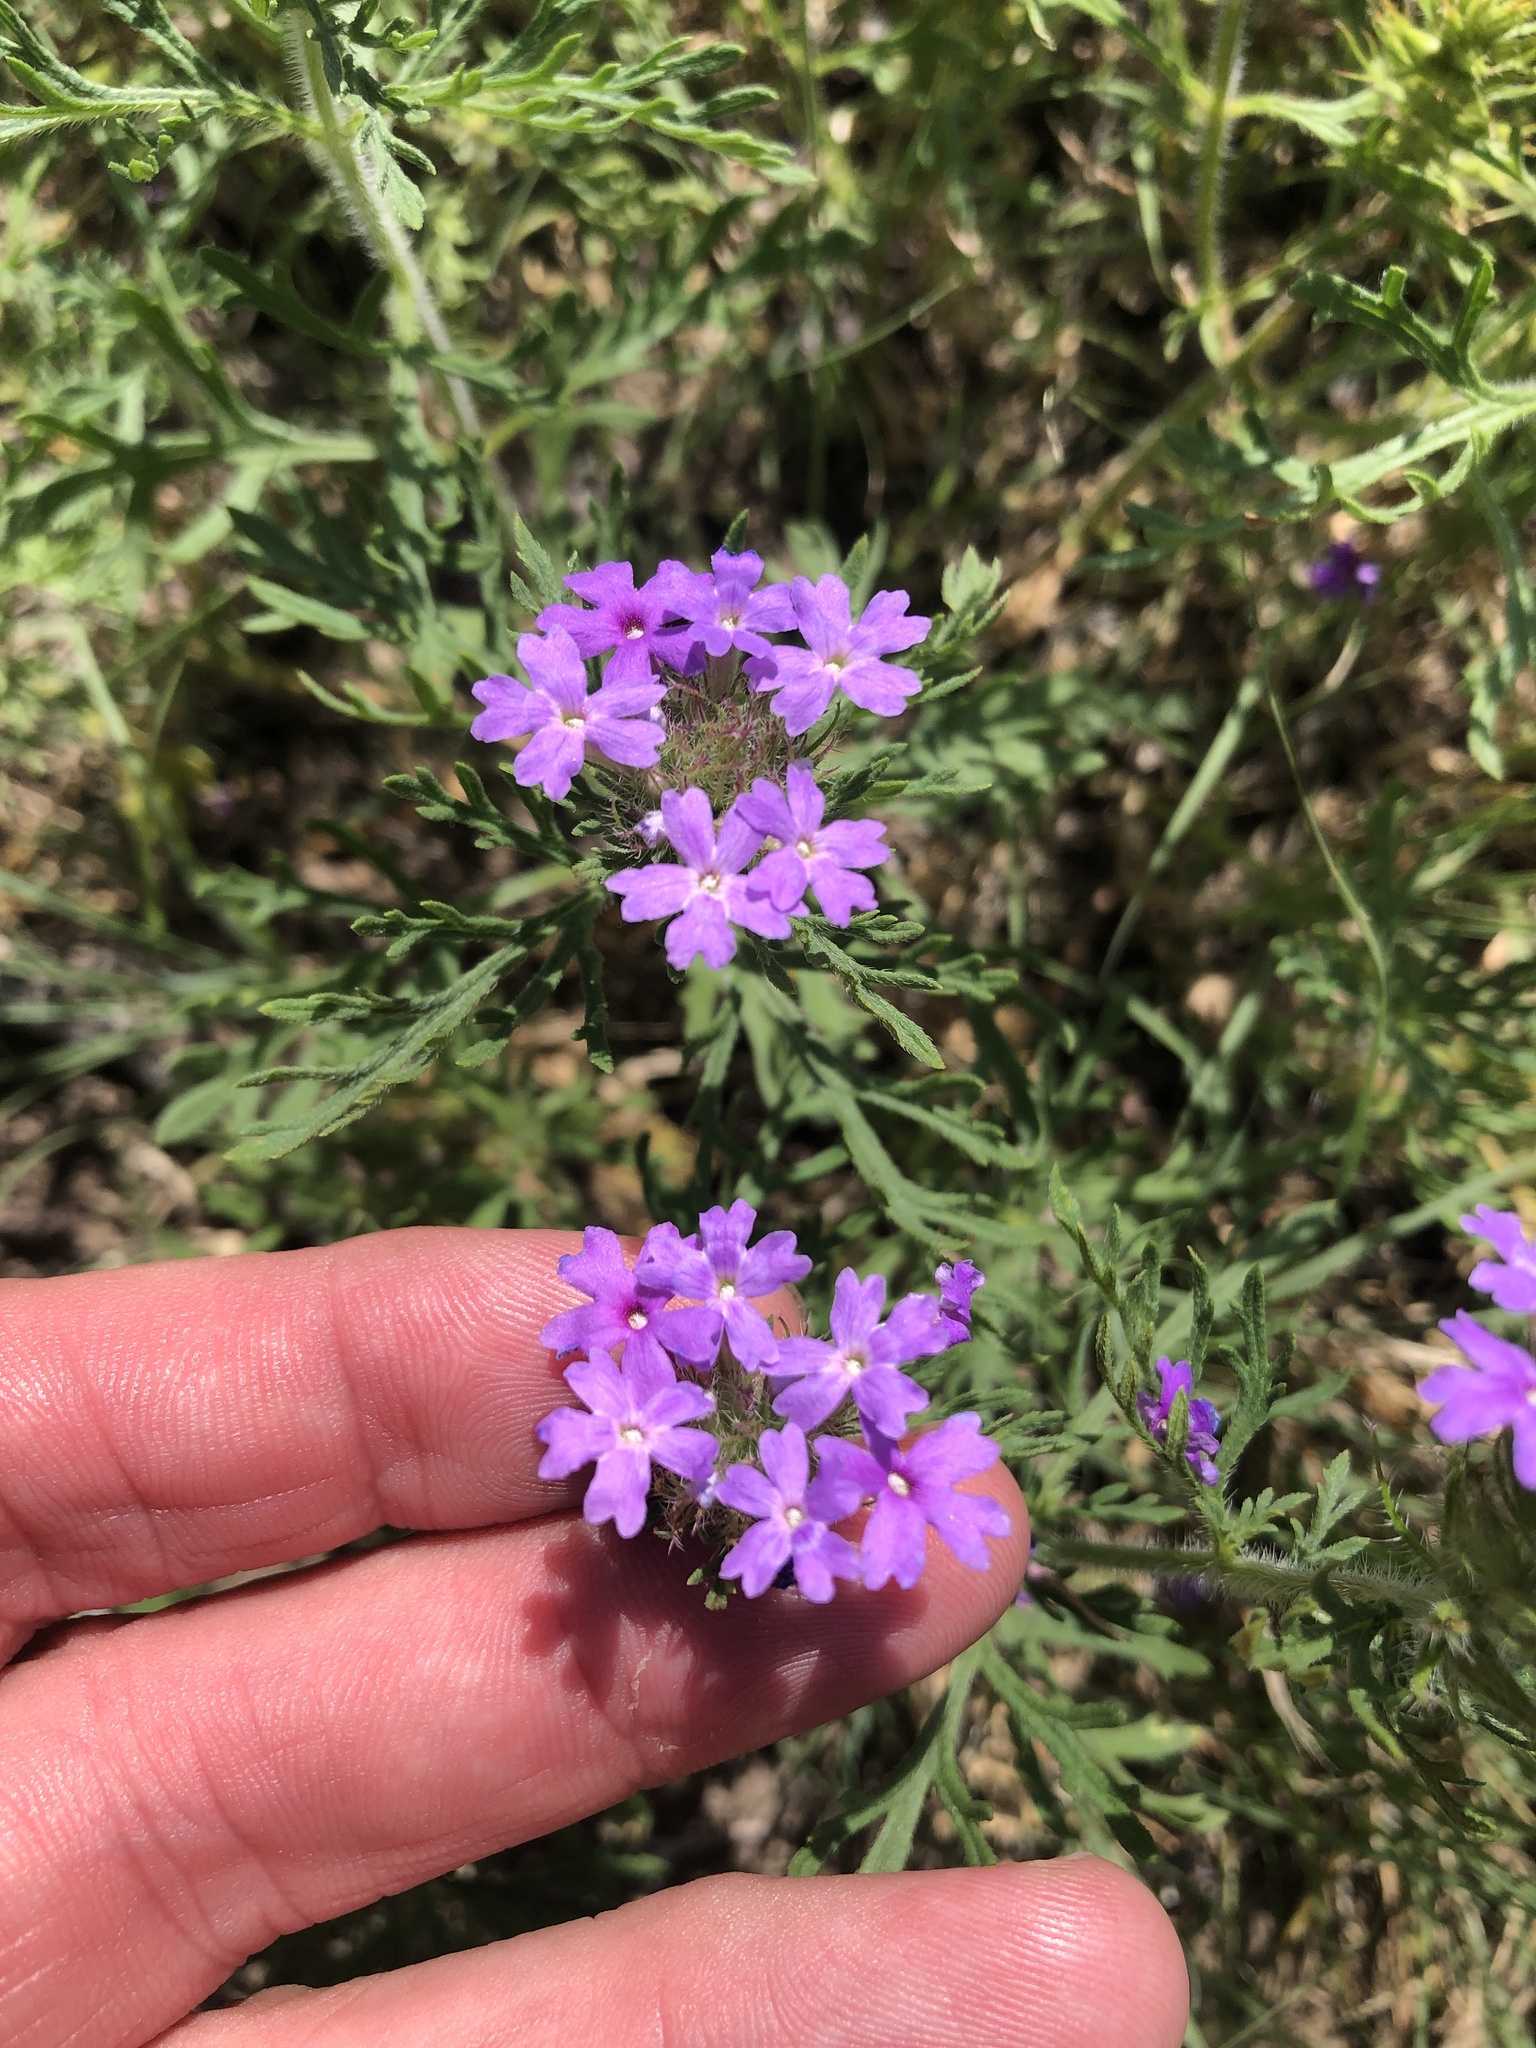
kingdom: Plantae
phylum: Tracheophyta
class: Magnoliopsida
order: Lamiales
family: Verbenaceae
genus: Verbena
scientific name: Verbena bipinnatifida
